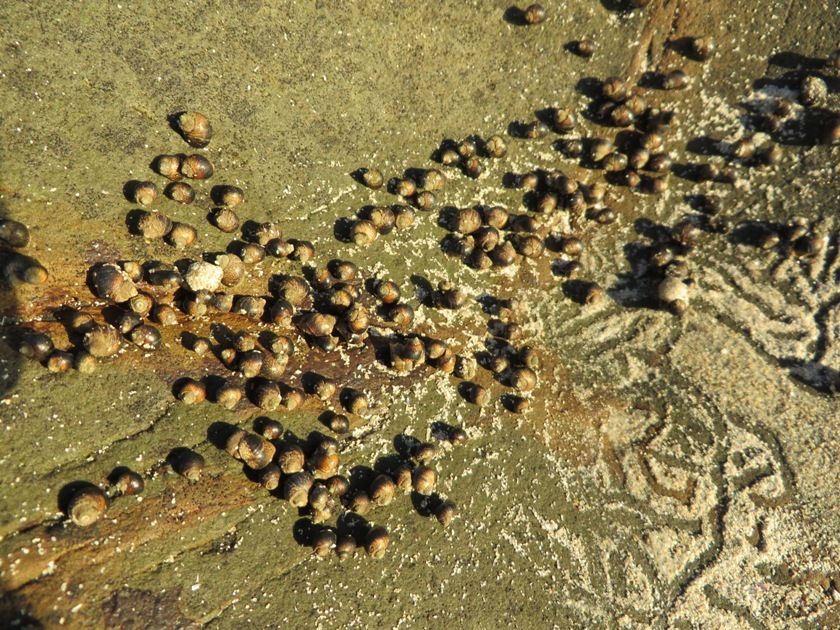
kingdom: Animalia
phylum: Mollusca
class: Gastropoda
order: Littorinimorpha
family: Littorinidae
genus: Afrolittorina
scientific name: Afrolittorina knysnaensis
